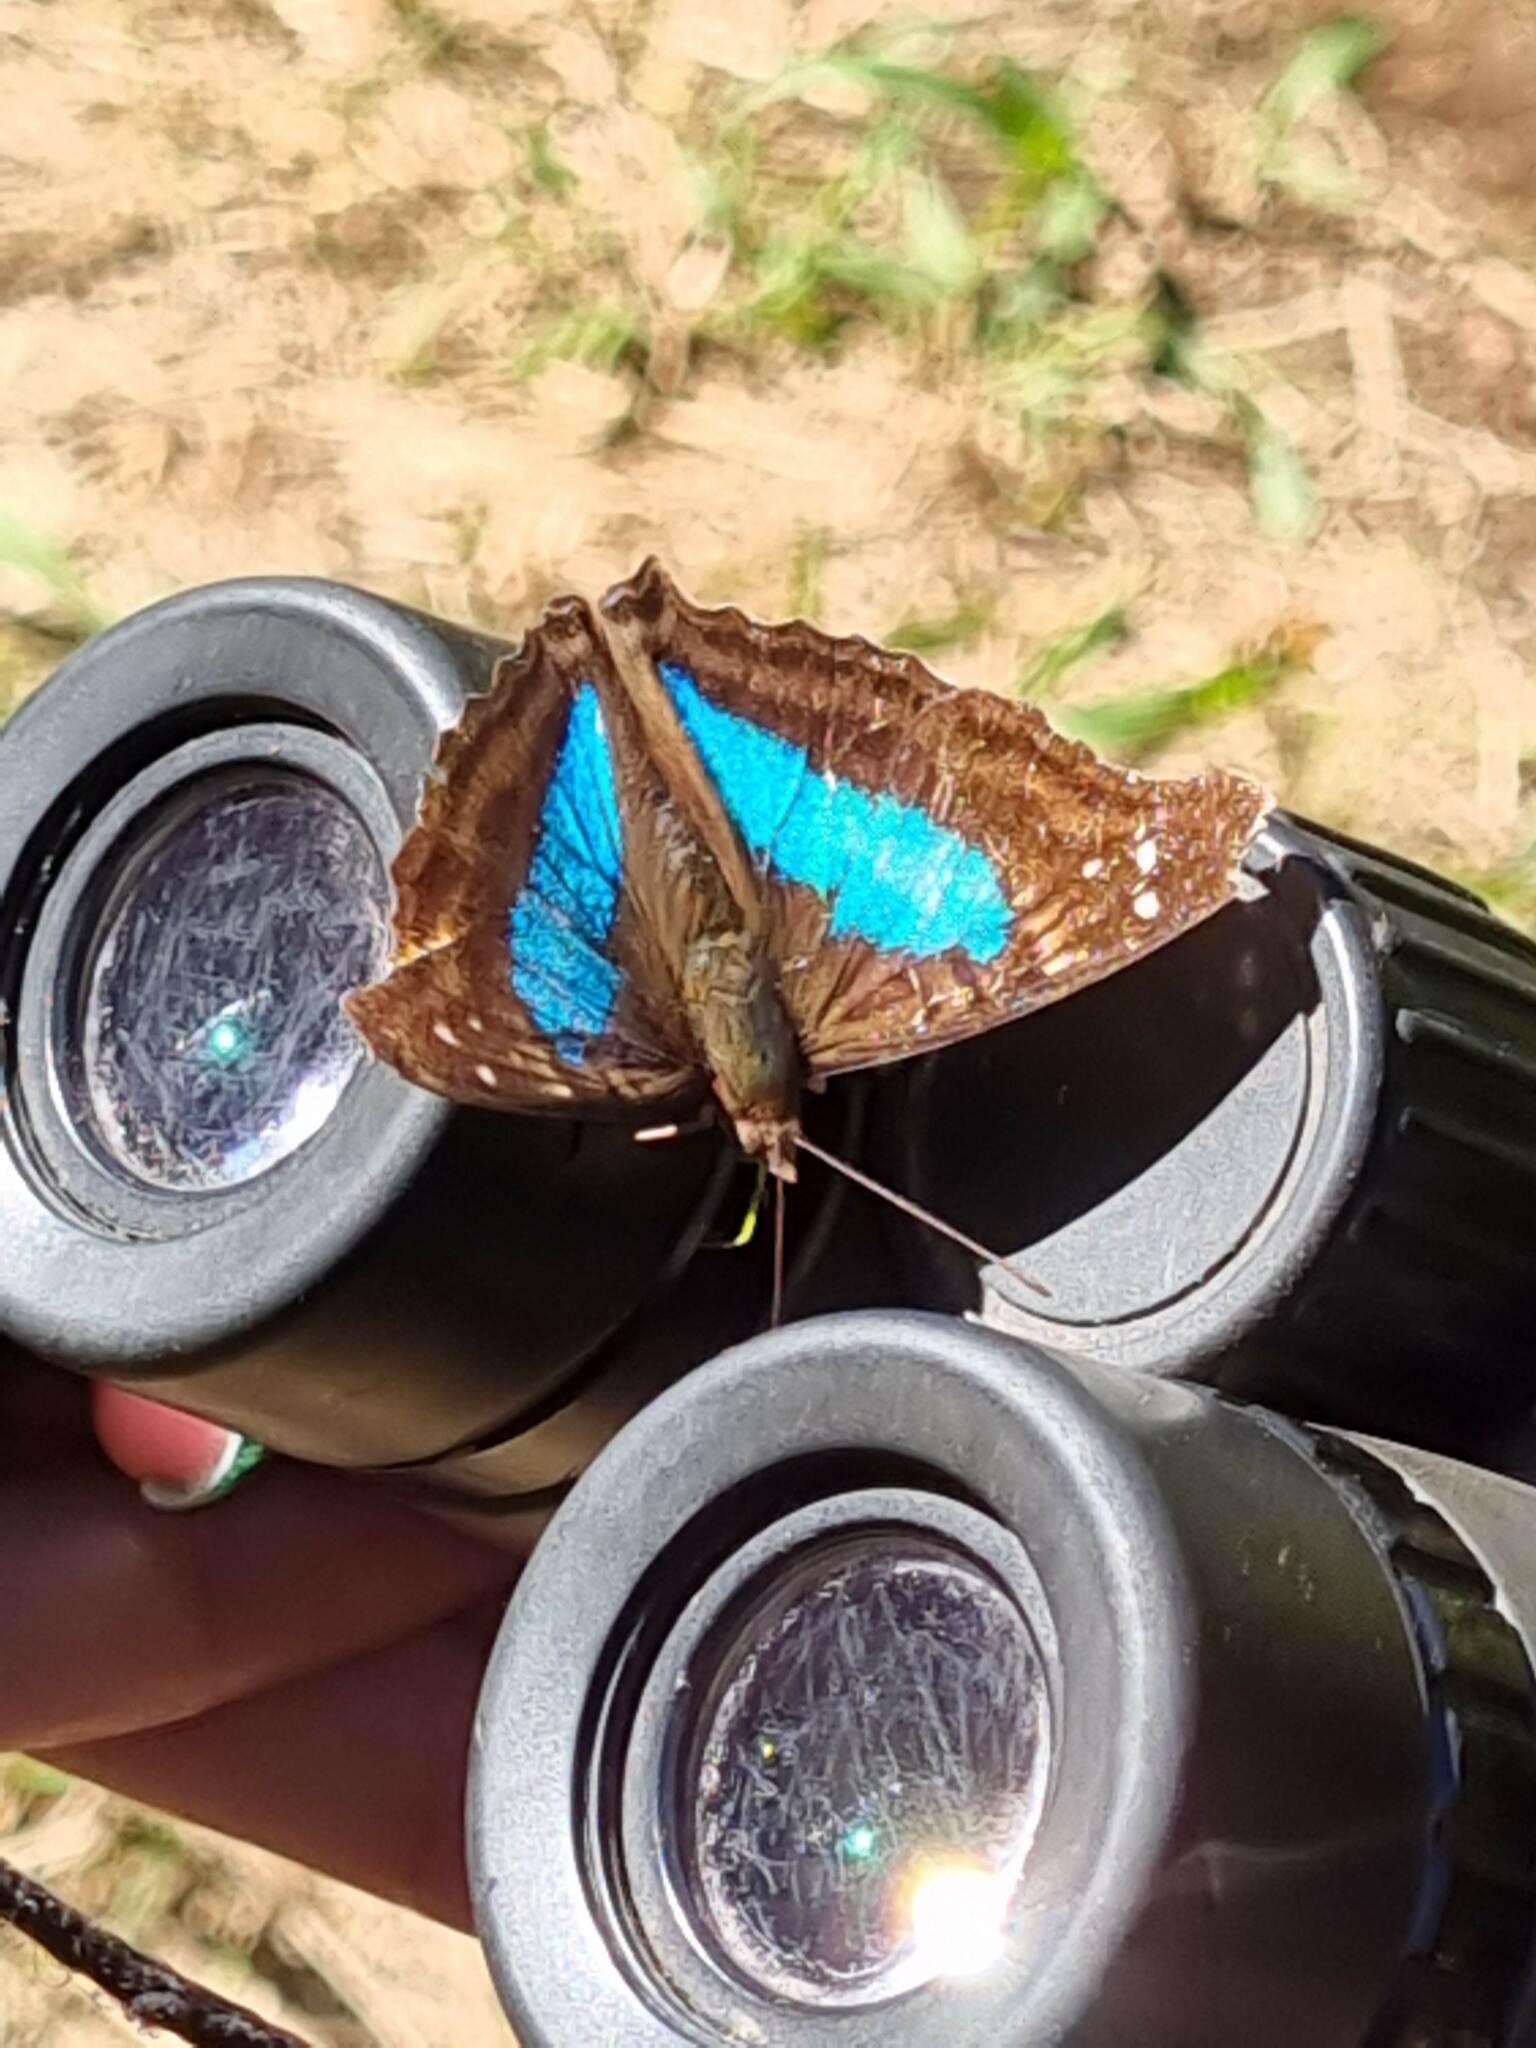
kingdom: Animalia
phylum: Arthropoda
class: Insecta
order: Lepidoptera
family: Nymphalidae
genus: Doxocopa
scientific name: Doxocopa laurentia
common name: Turquoise emperor
